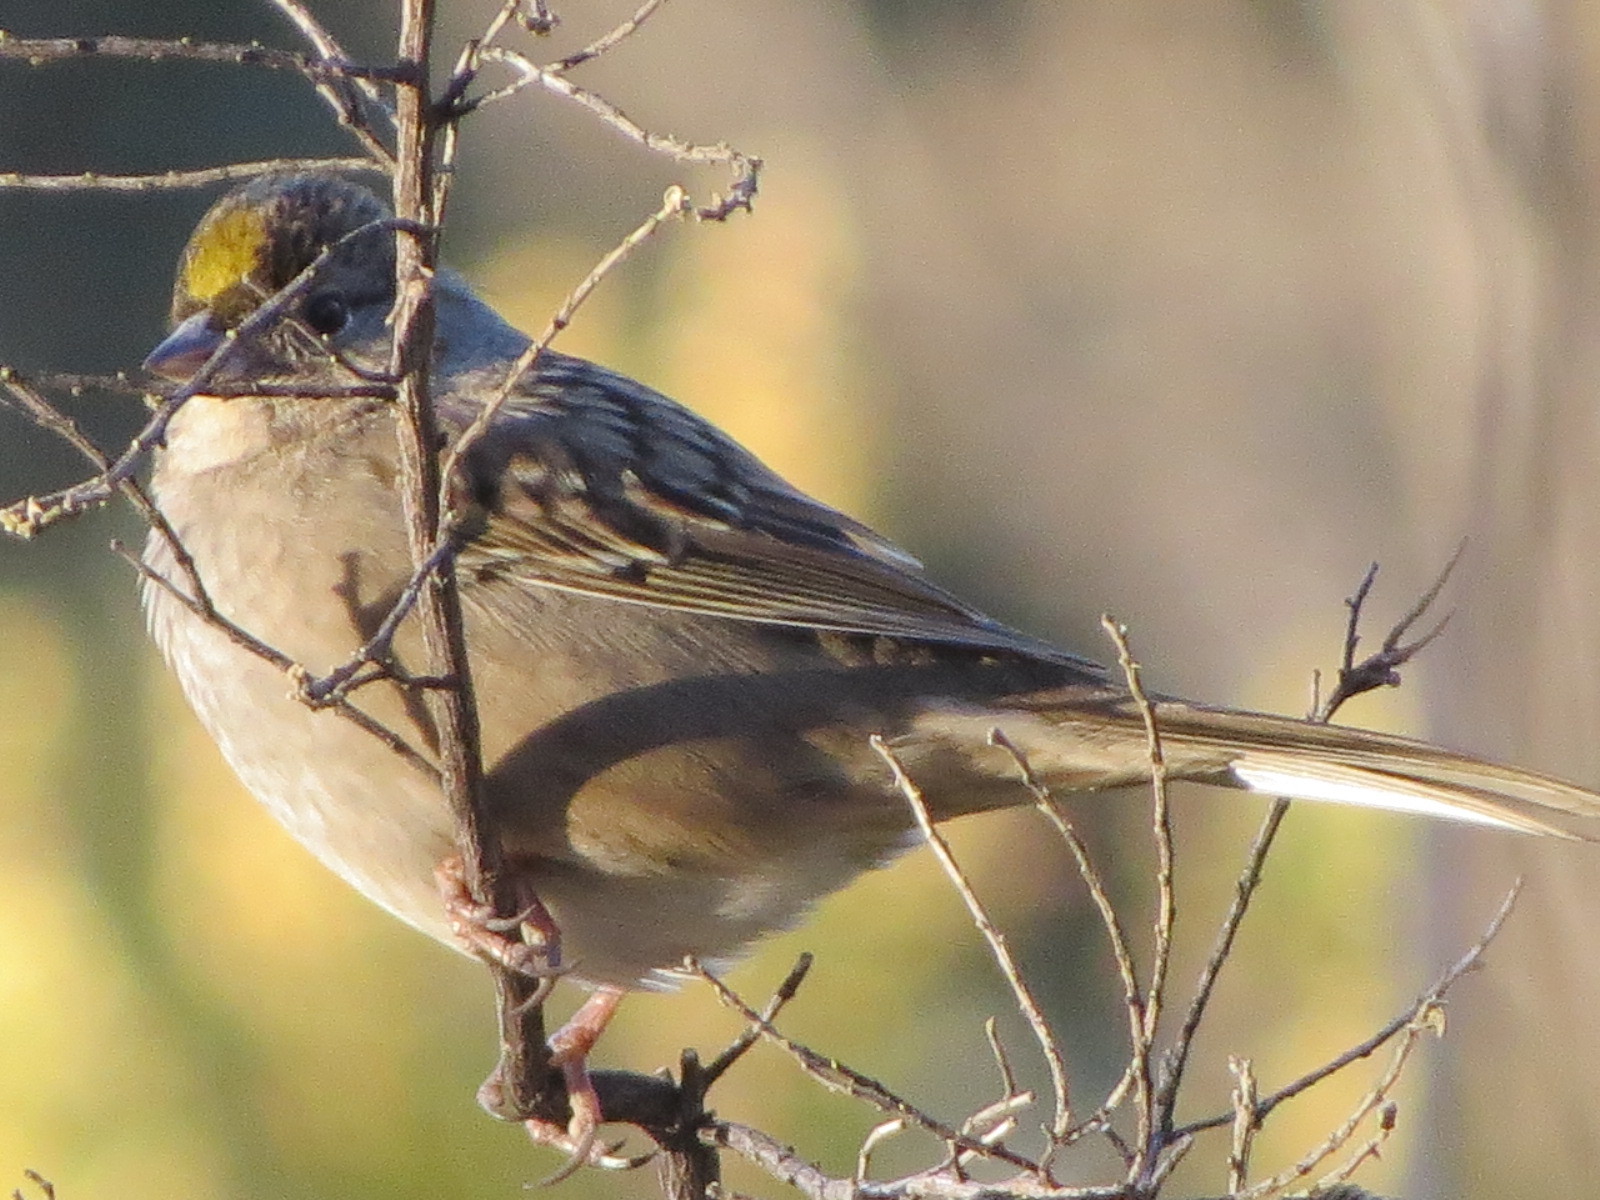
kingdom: Animalia
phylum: Chordata
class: Aves
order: Passeriformes
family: Passerellidae
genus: Zonotrichia
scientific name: Zonotrichia atricapilla
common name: Golden-crowned sparrow
